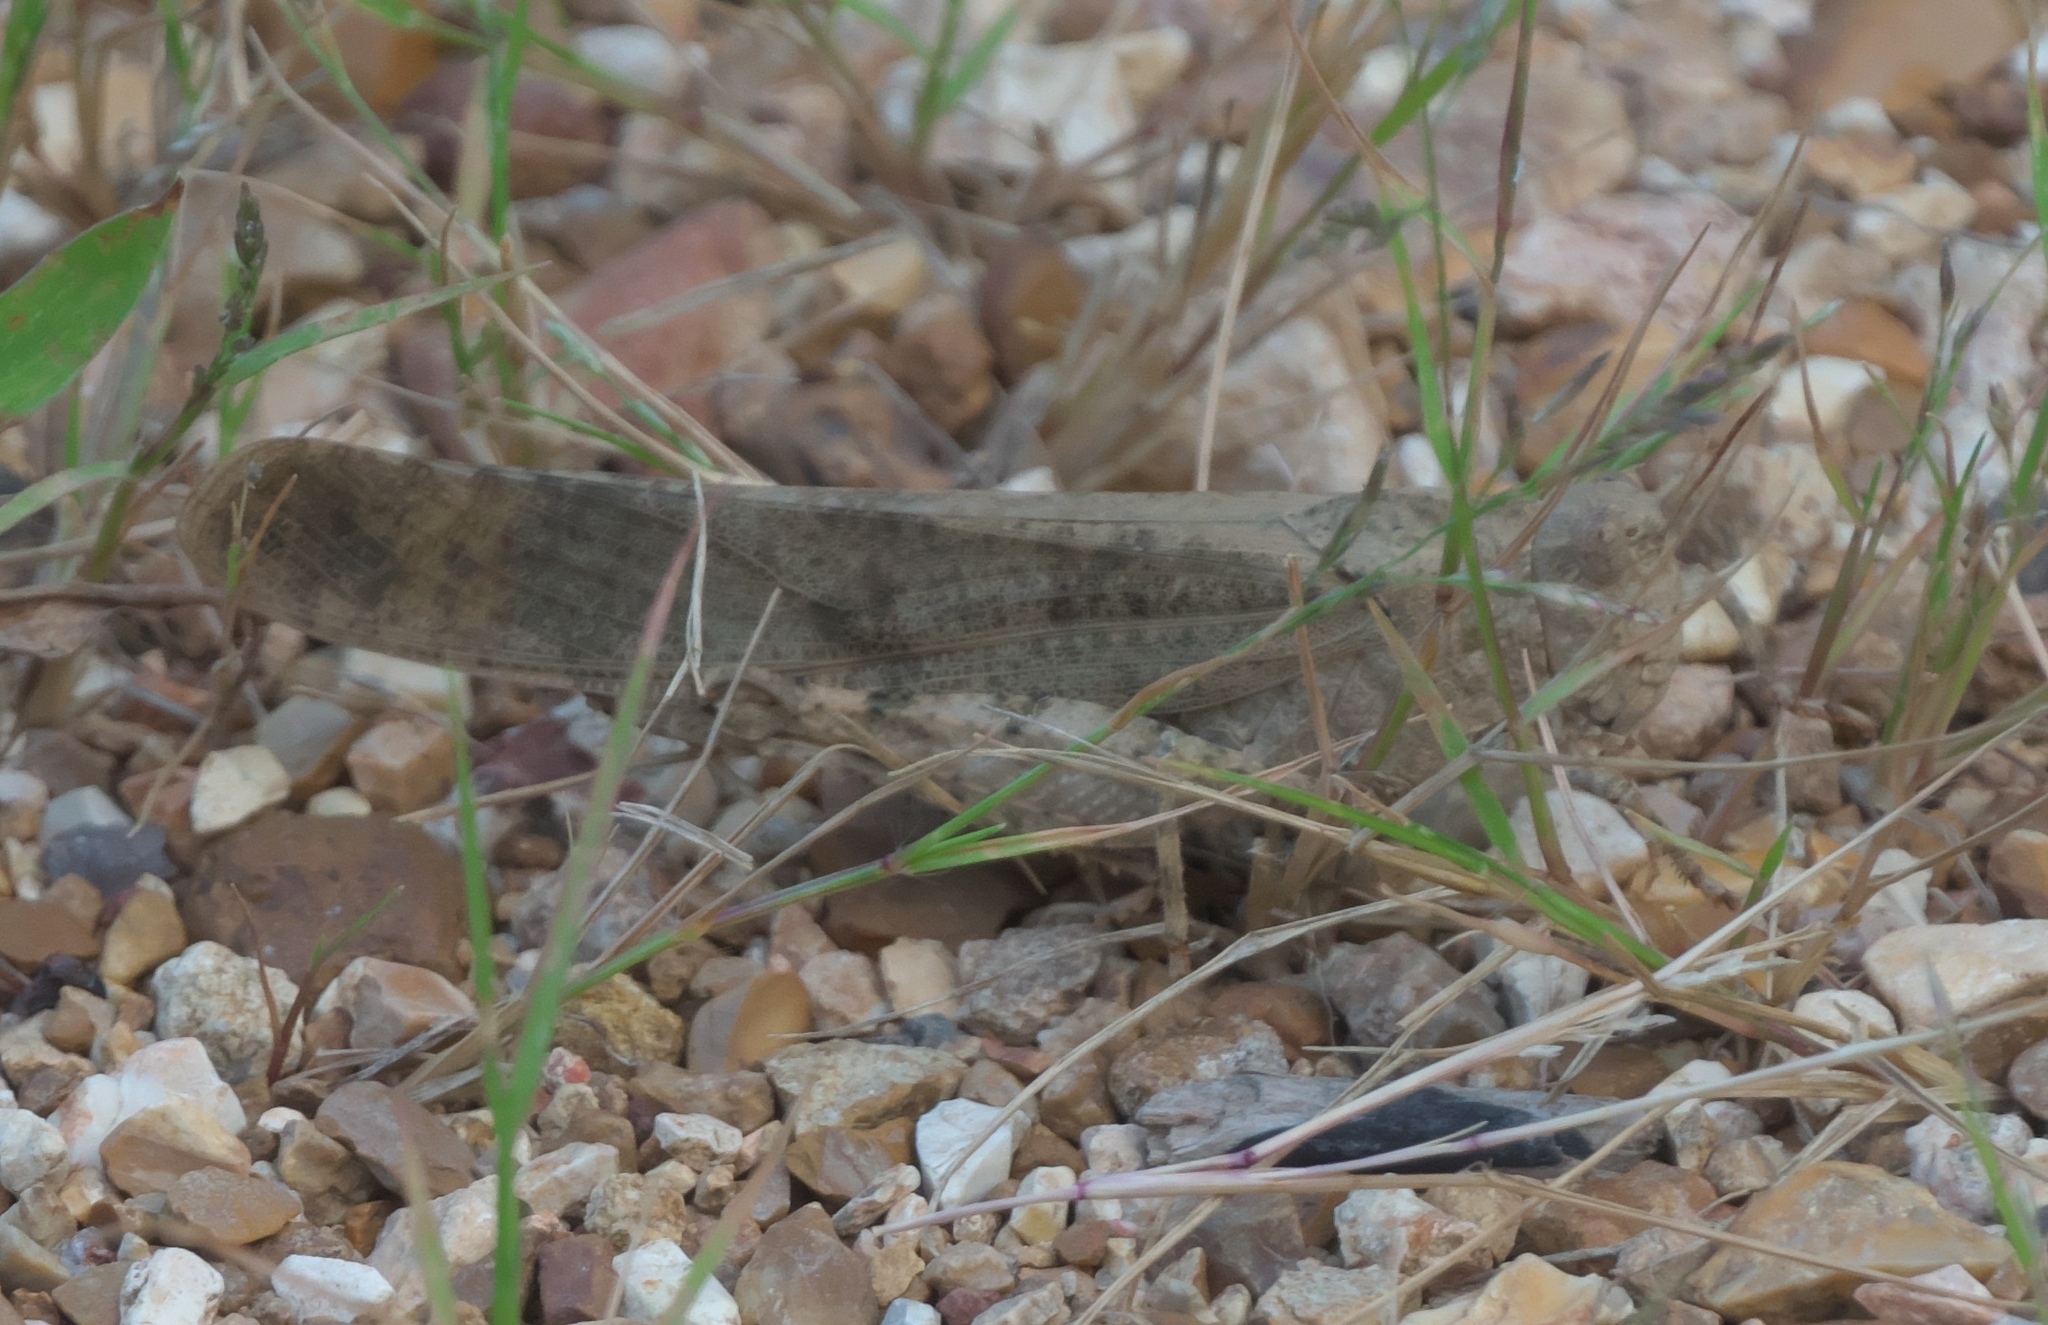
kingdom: Animalia
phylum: Arthropoda
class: Insecta
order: Orthoptera
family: Acrididae
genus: Dissosteira
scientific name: Dissosteira carolina
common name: Carolina grasshopper
